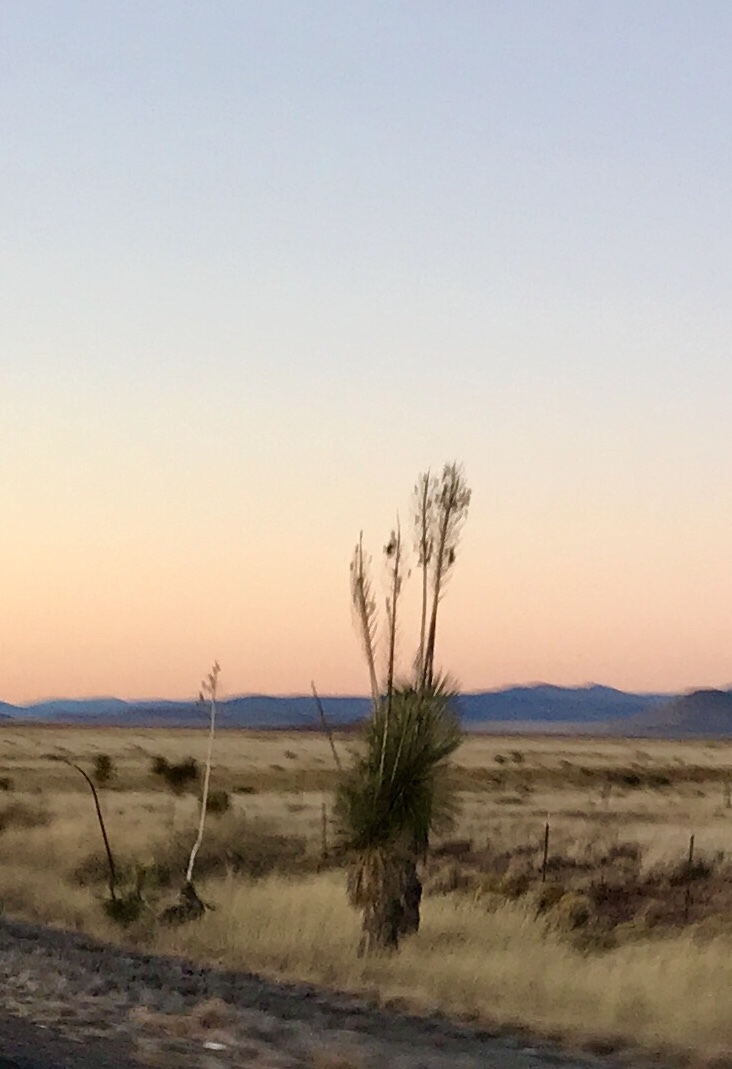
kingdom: Plantae
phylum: Tracheophyta
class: Liliopsida
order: Asparagales
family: Asparagaceae
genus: Yucca
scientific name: Yucca elata
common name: Palmella
